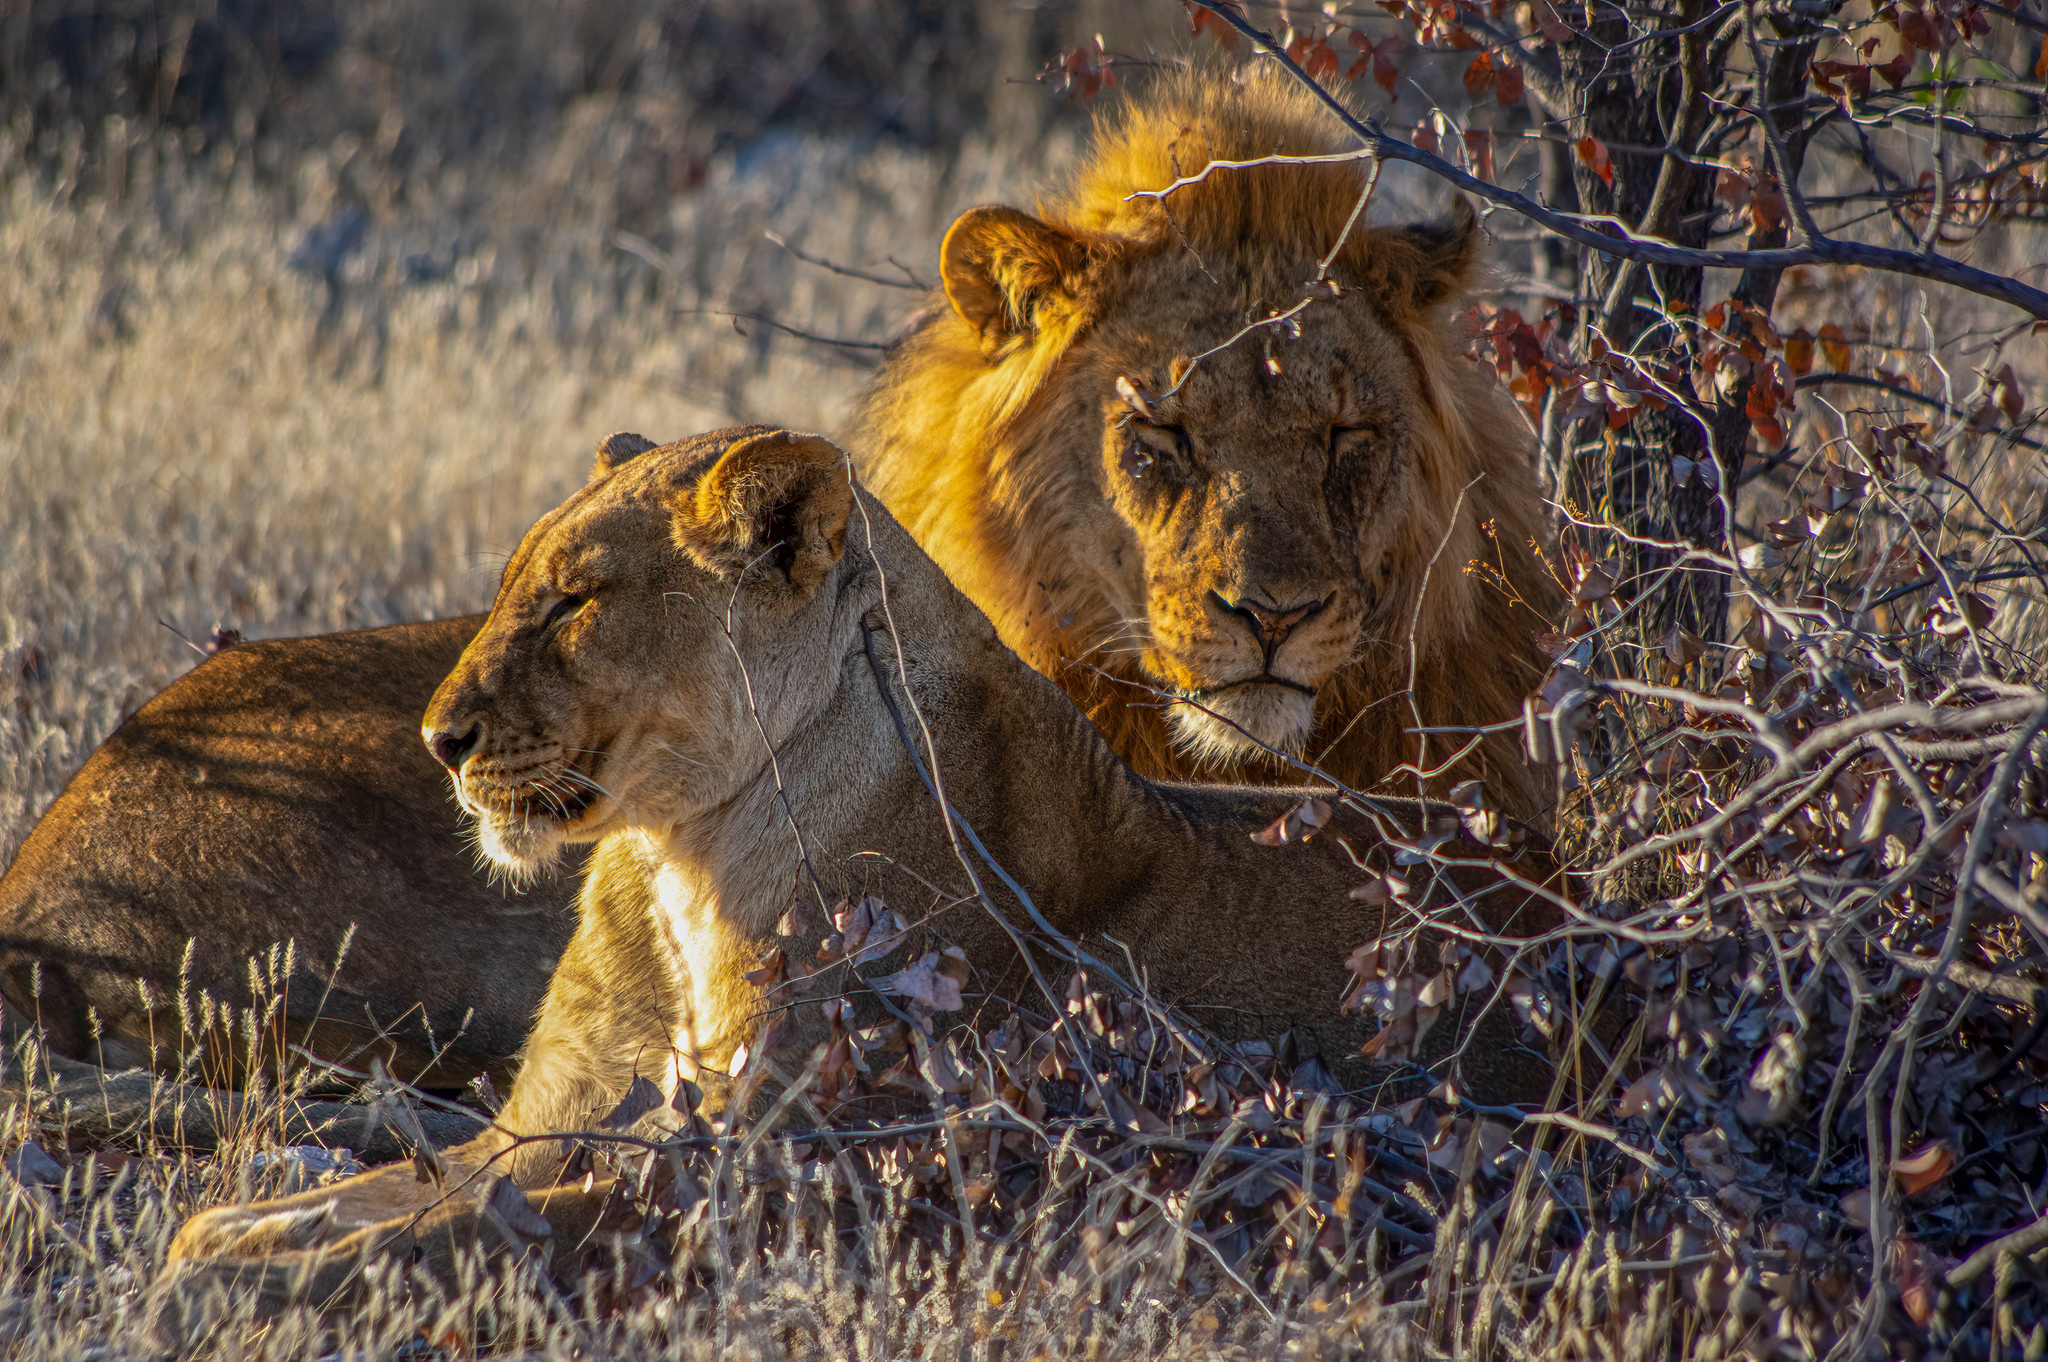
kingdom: Animalia
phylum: Chordata
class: Mammalia
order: Carnivora
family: Felidae
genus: Panthera
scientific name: Panthera leo
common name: Lion
